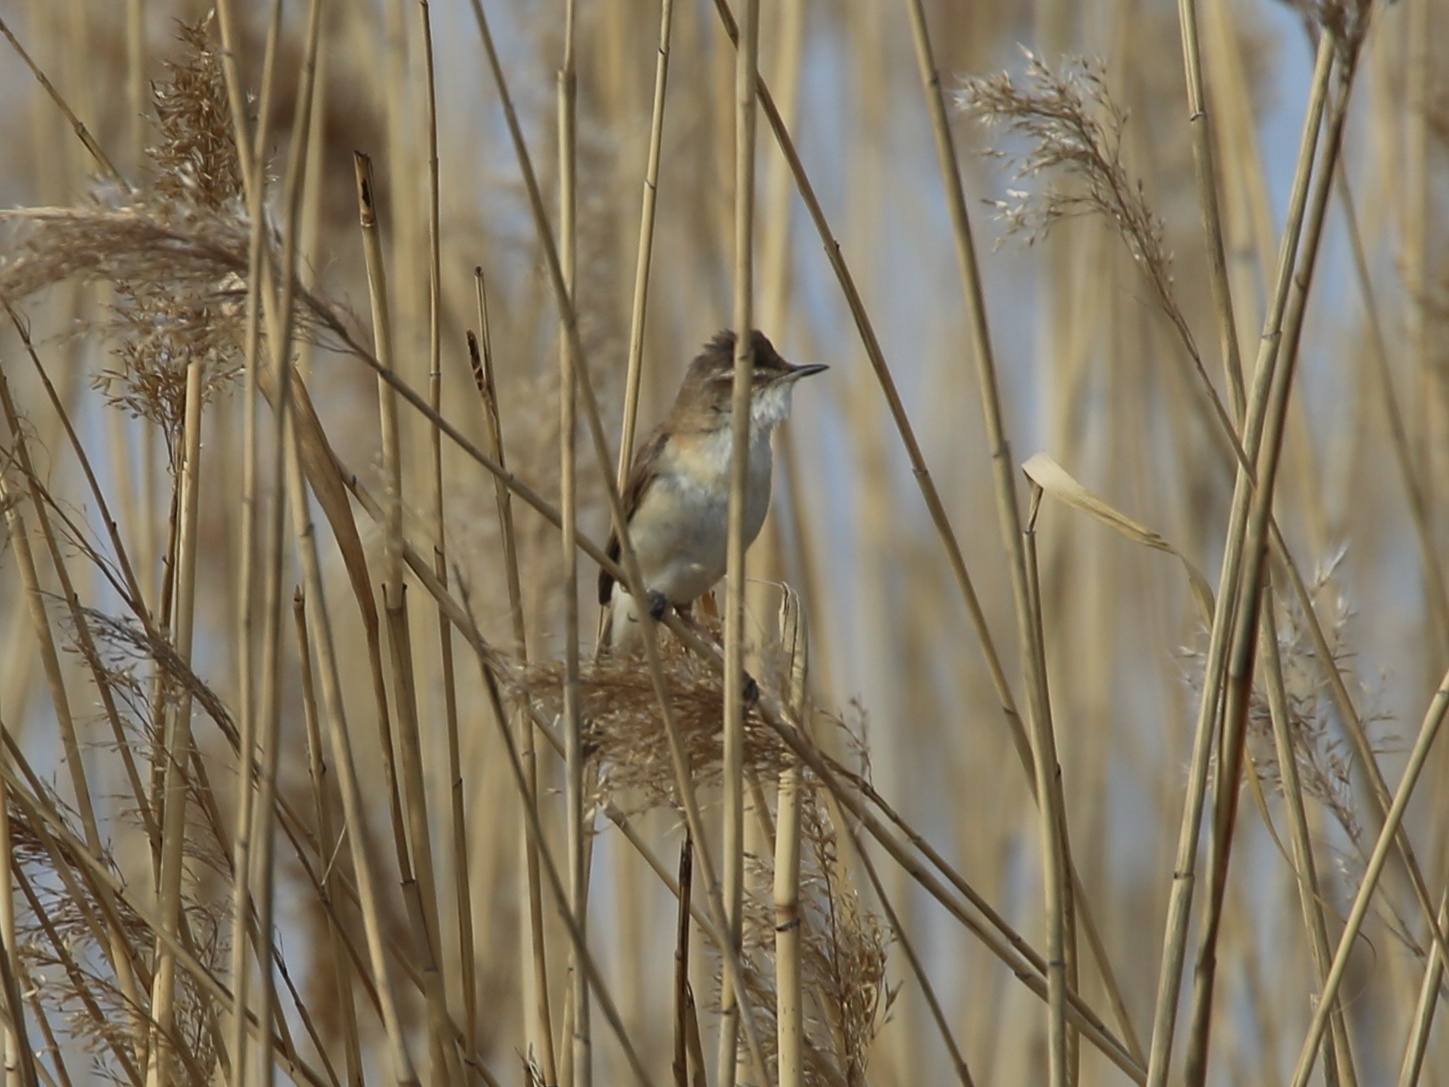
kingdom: Animalia
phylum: Chordata
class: Aves
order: Passeriformes
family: Acrocephalidae
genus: Acrocephalus
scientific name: Acrocephalus agricola
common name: Paddyfield warbler
